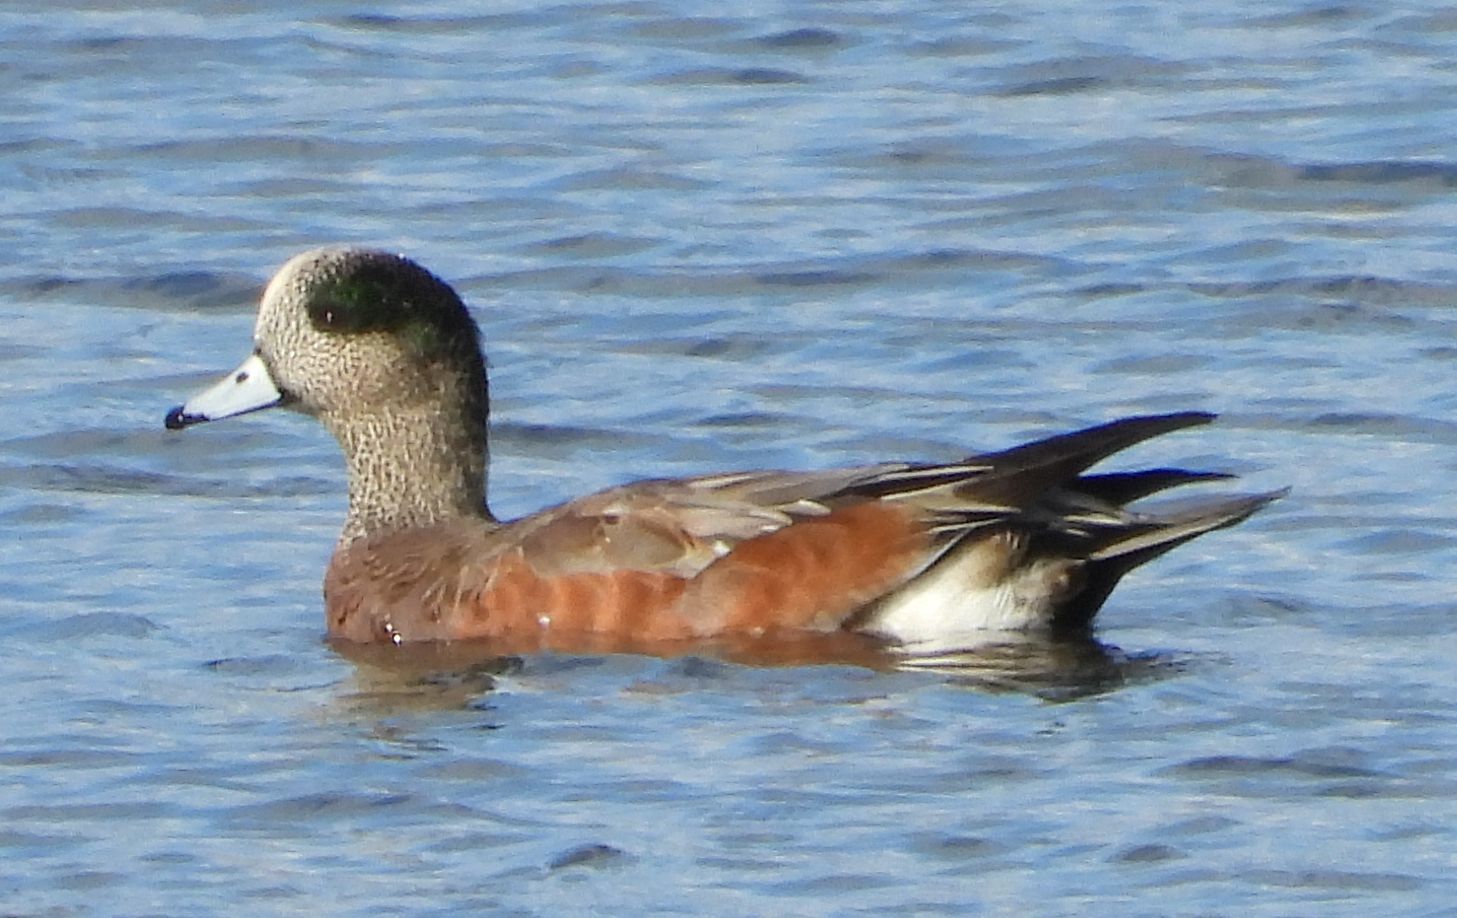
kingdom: Animalia
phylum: Chordata
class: Aves
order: Anseriformes
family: Anatidae
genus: Mareca
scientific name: Mareca americana
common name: American wigeon
